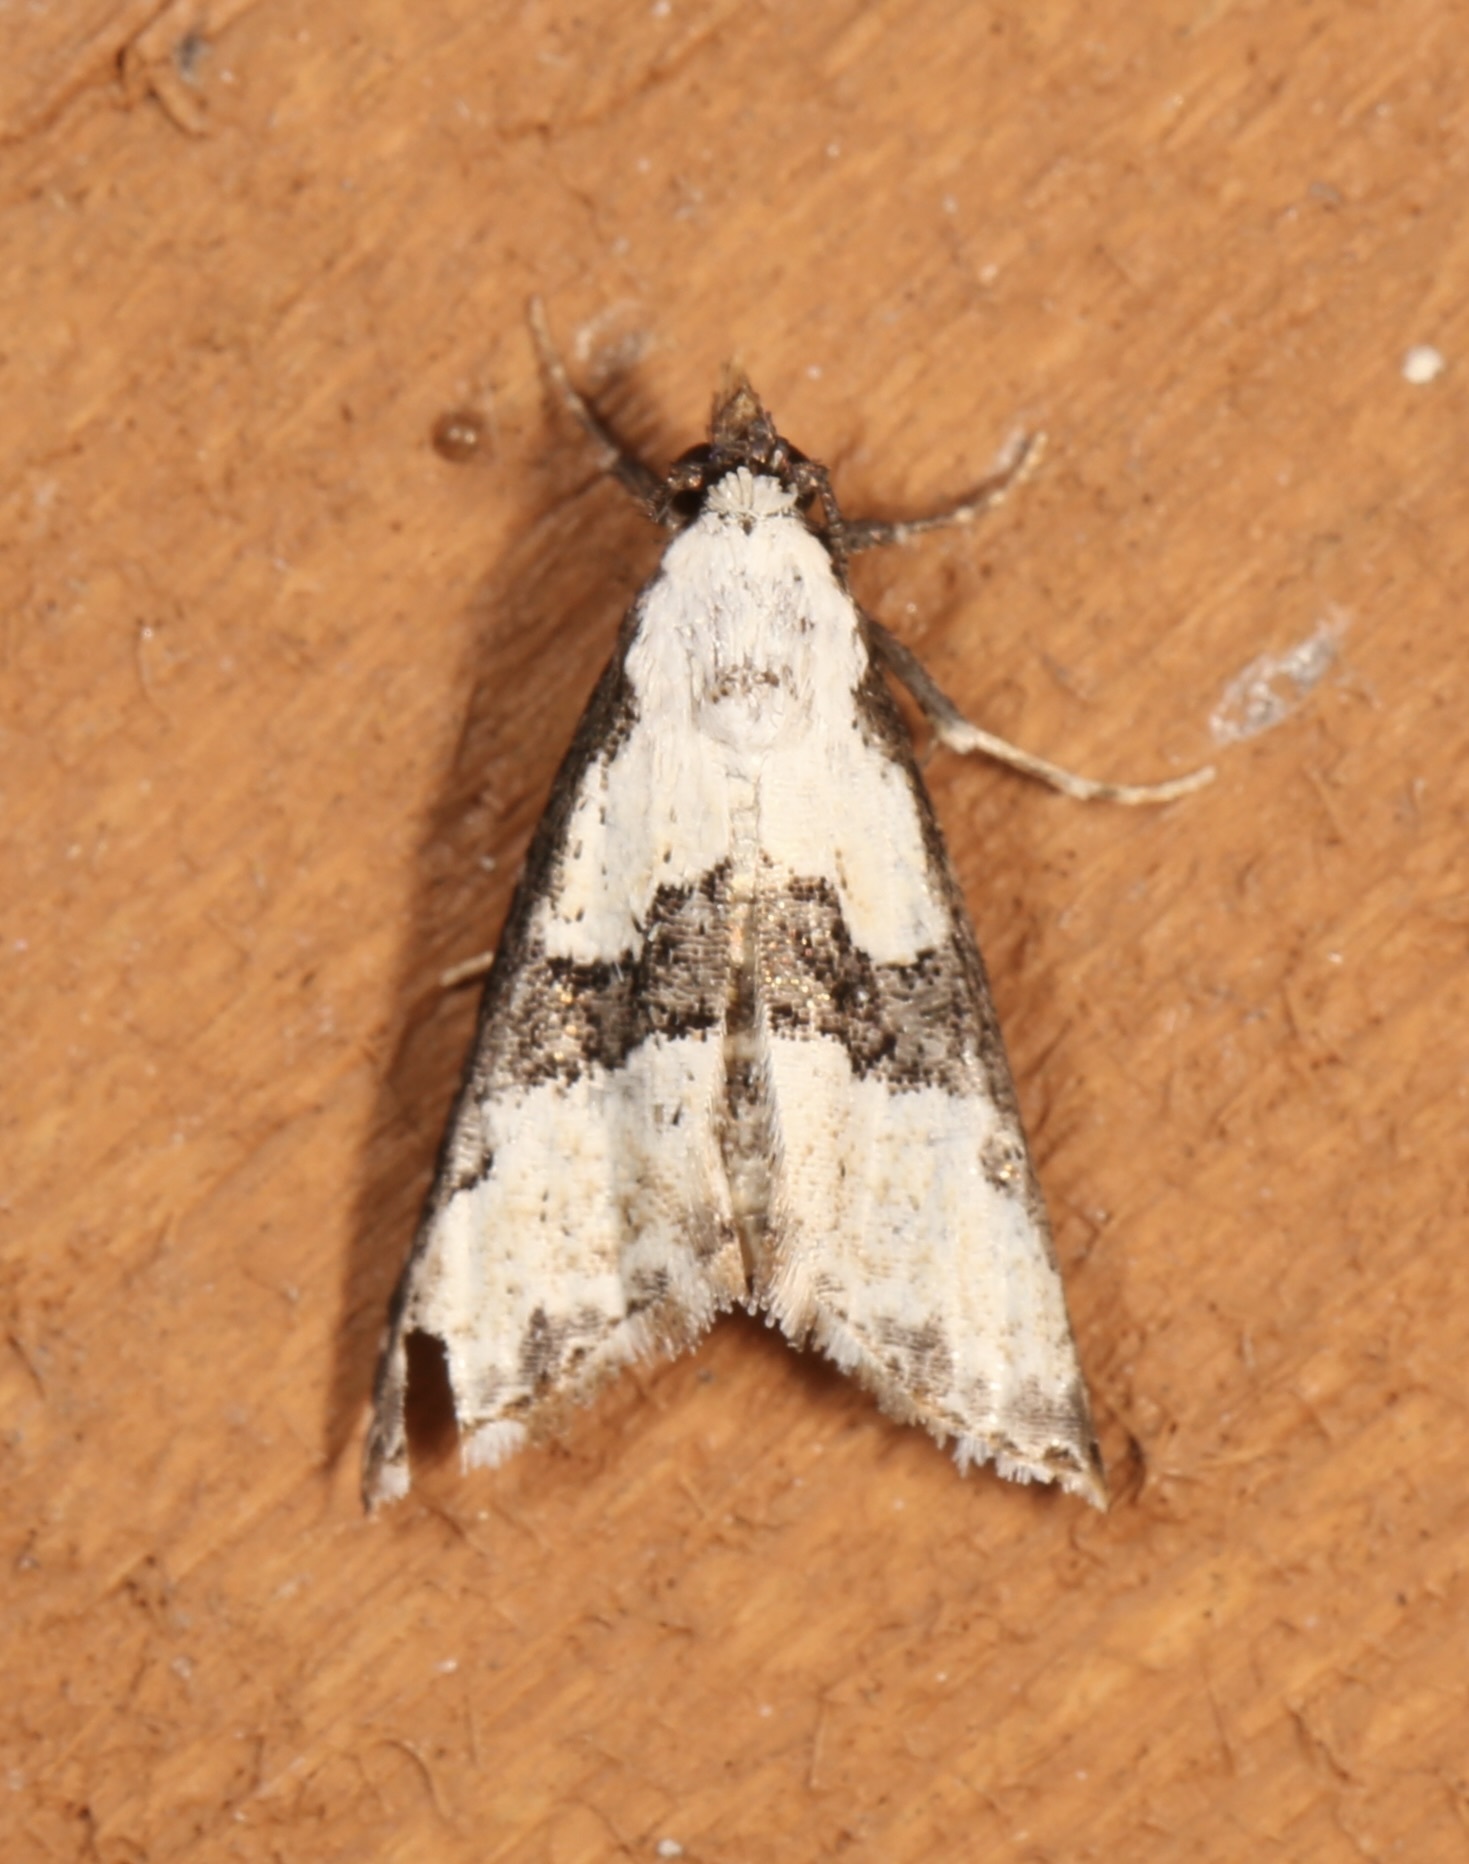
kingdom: Animalia
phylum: Arthropoda
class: Insecta
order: Lepidoptera
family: Noctuidae
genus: Nigetia
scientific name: Nigetia formosalis
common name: Thin-winged owlet
